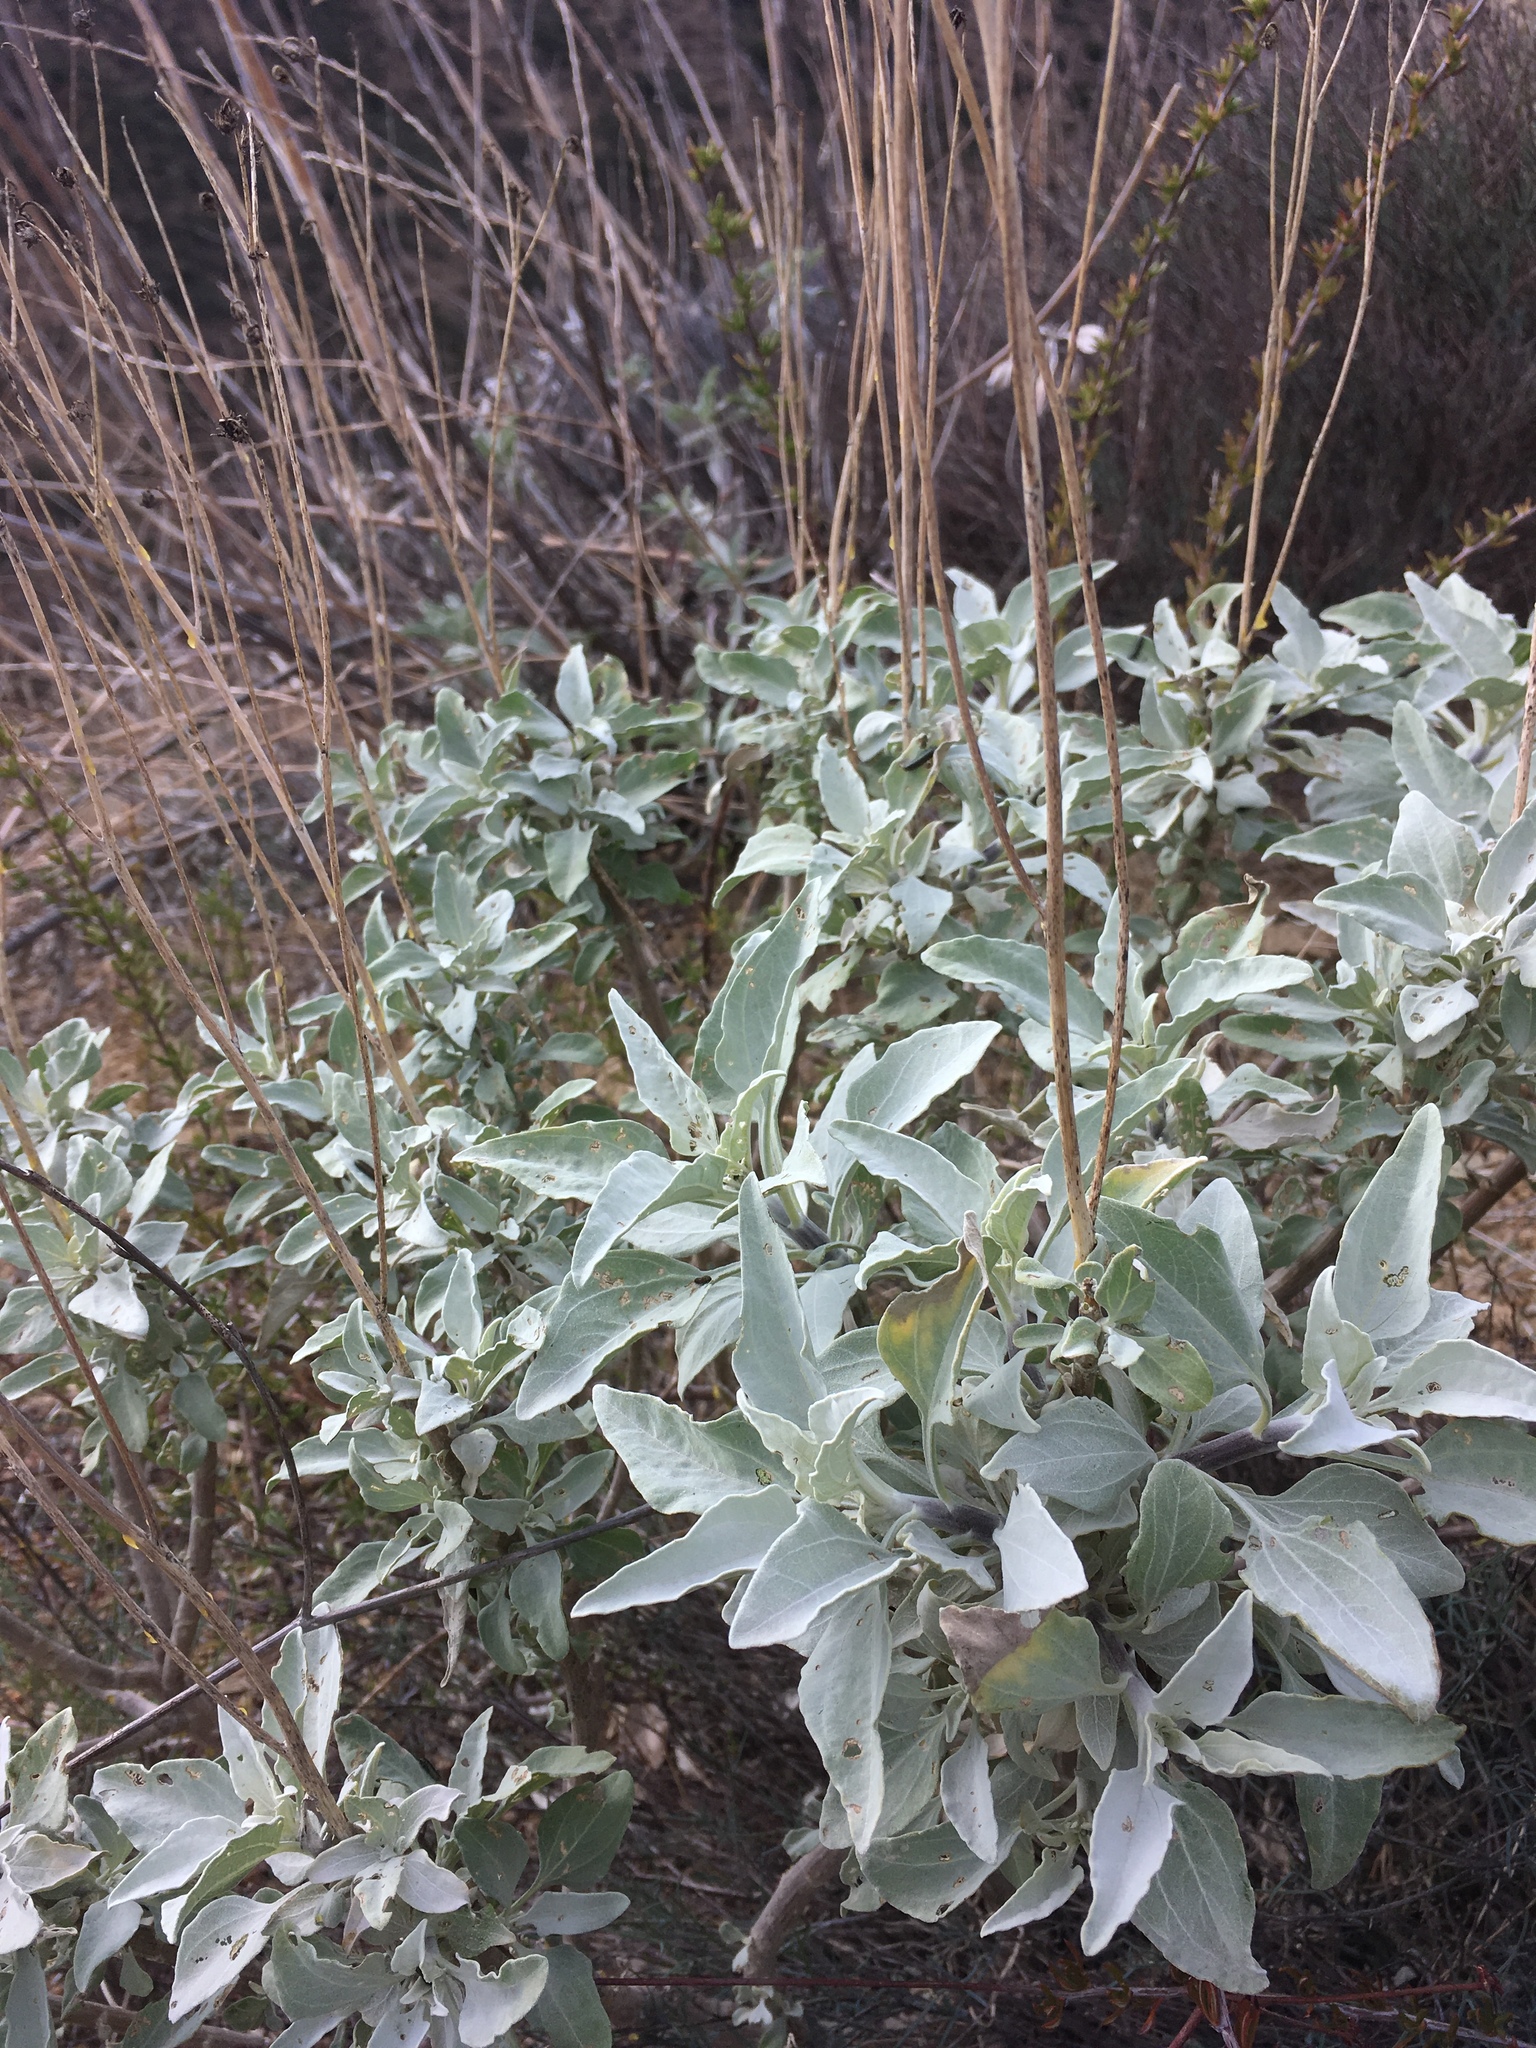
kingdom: Plantae
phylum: Tracheophyta
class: Magnoliopsida
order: Lamiales
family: Lamiaceae
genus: Salvia
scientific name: Salvia apiana
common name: White sage
